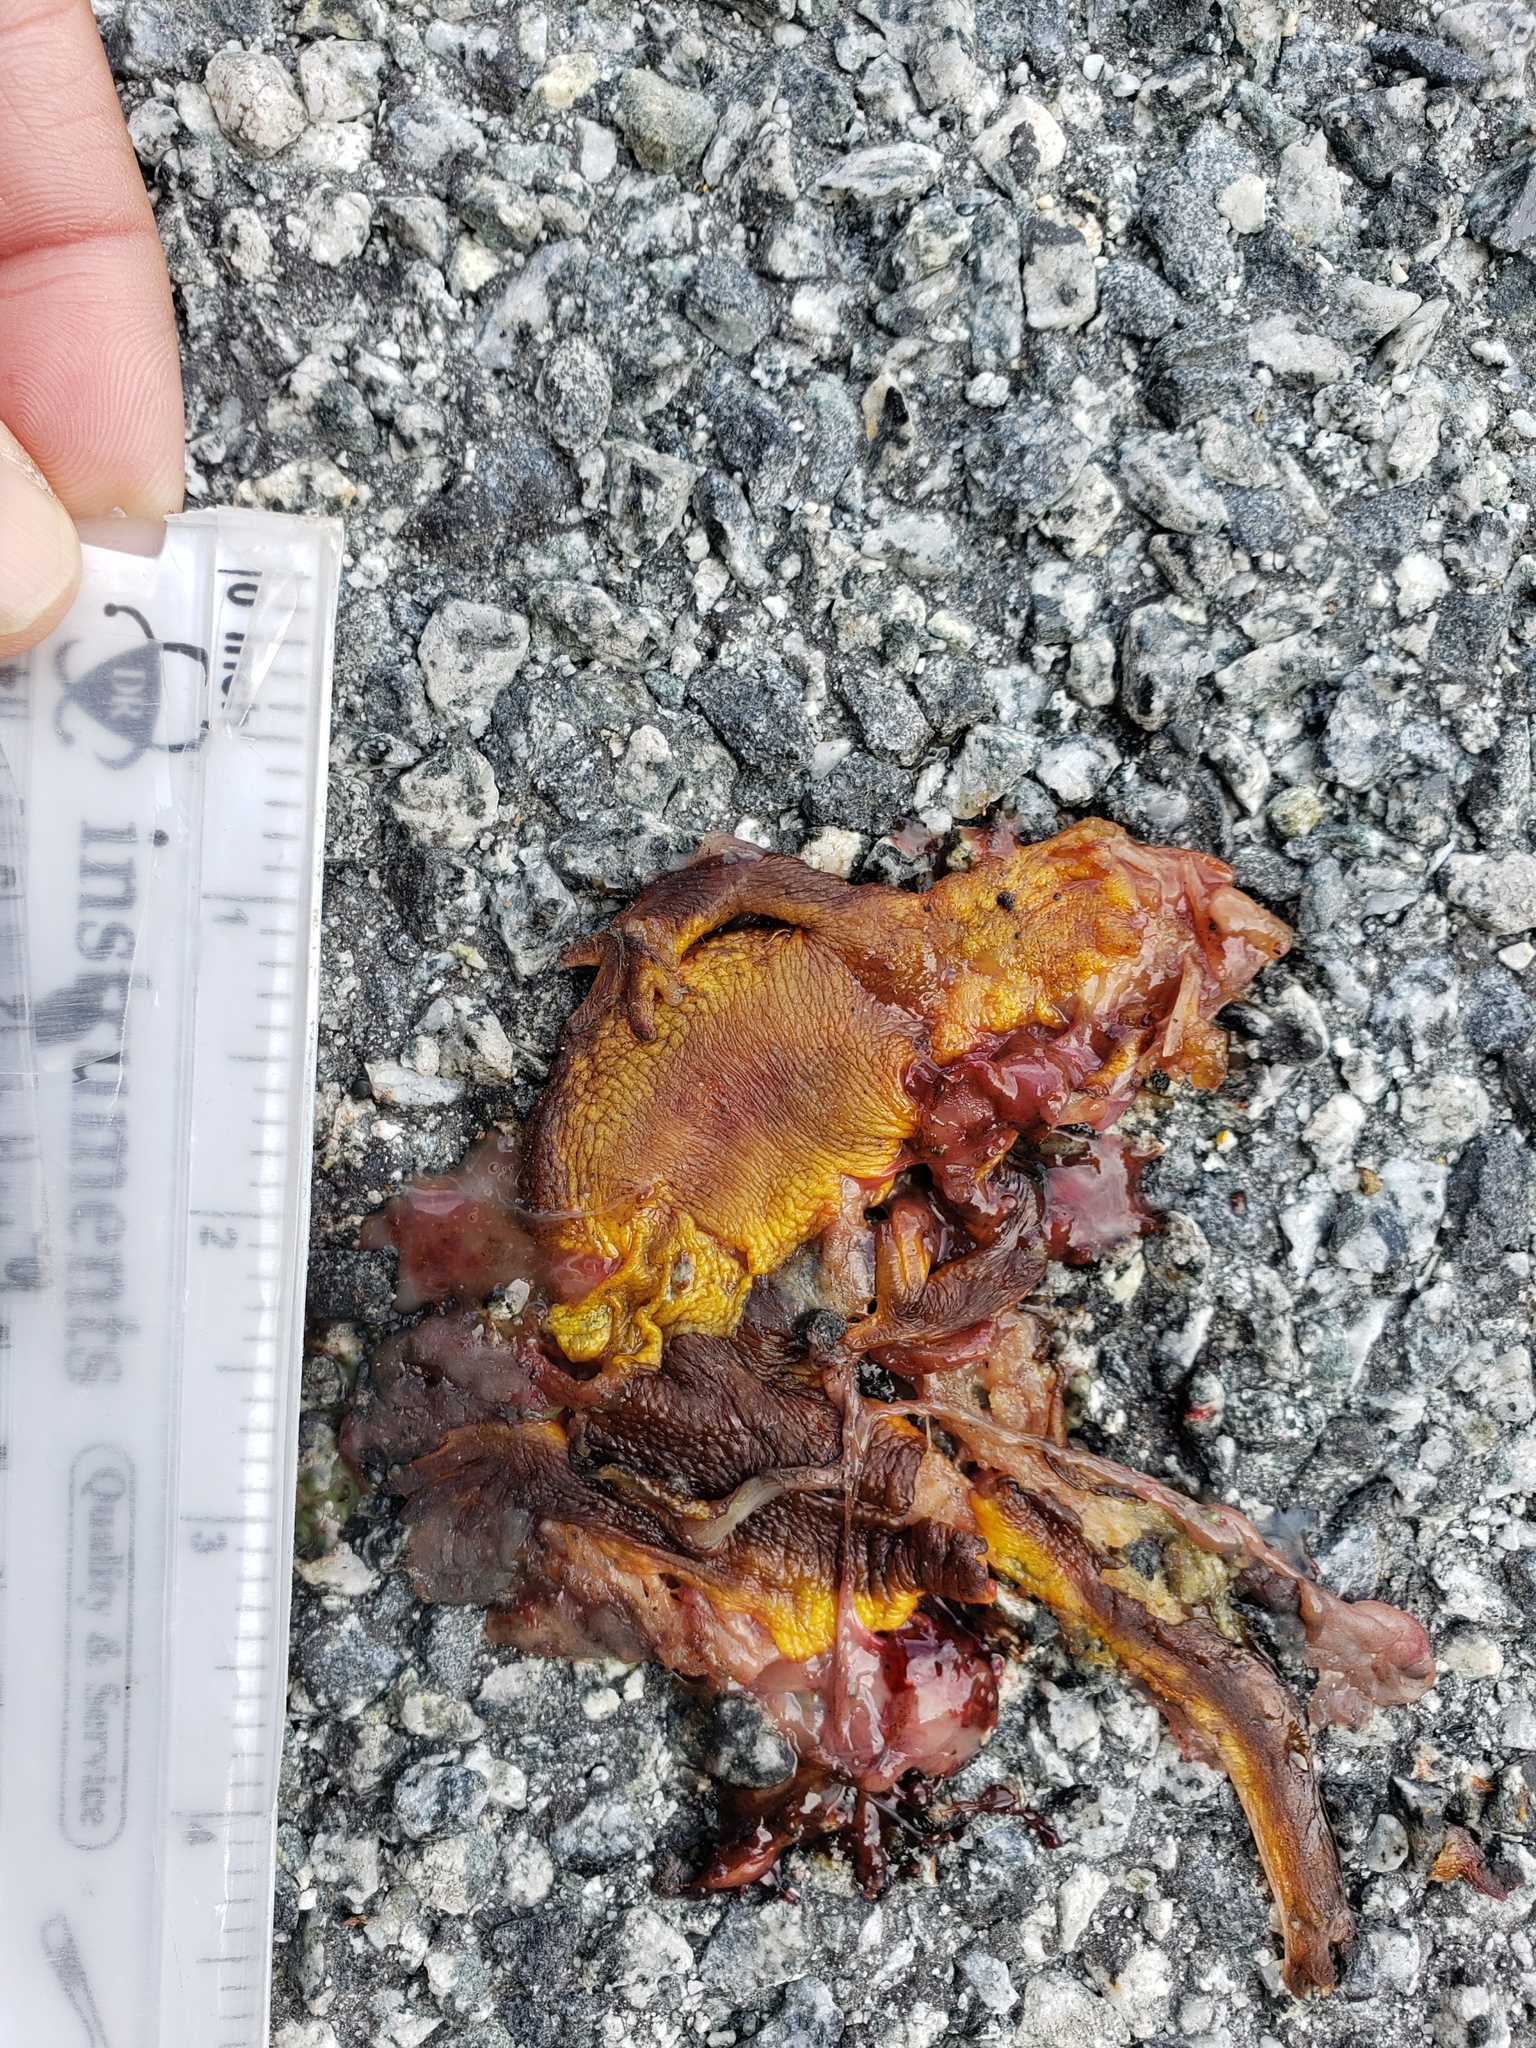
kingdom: Animalia
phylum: Chordata
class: Amphibia
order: Caudata
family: Salamandridae
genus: Taricha
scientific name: Taricha
